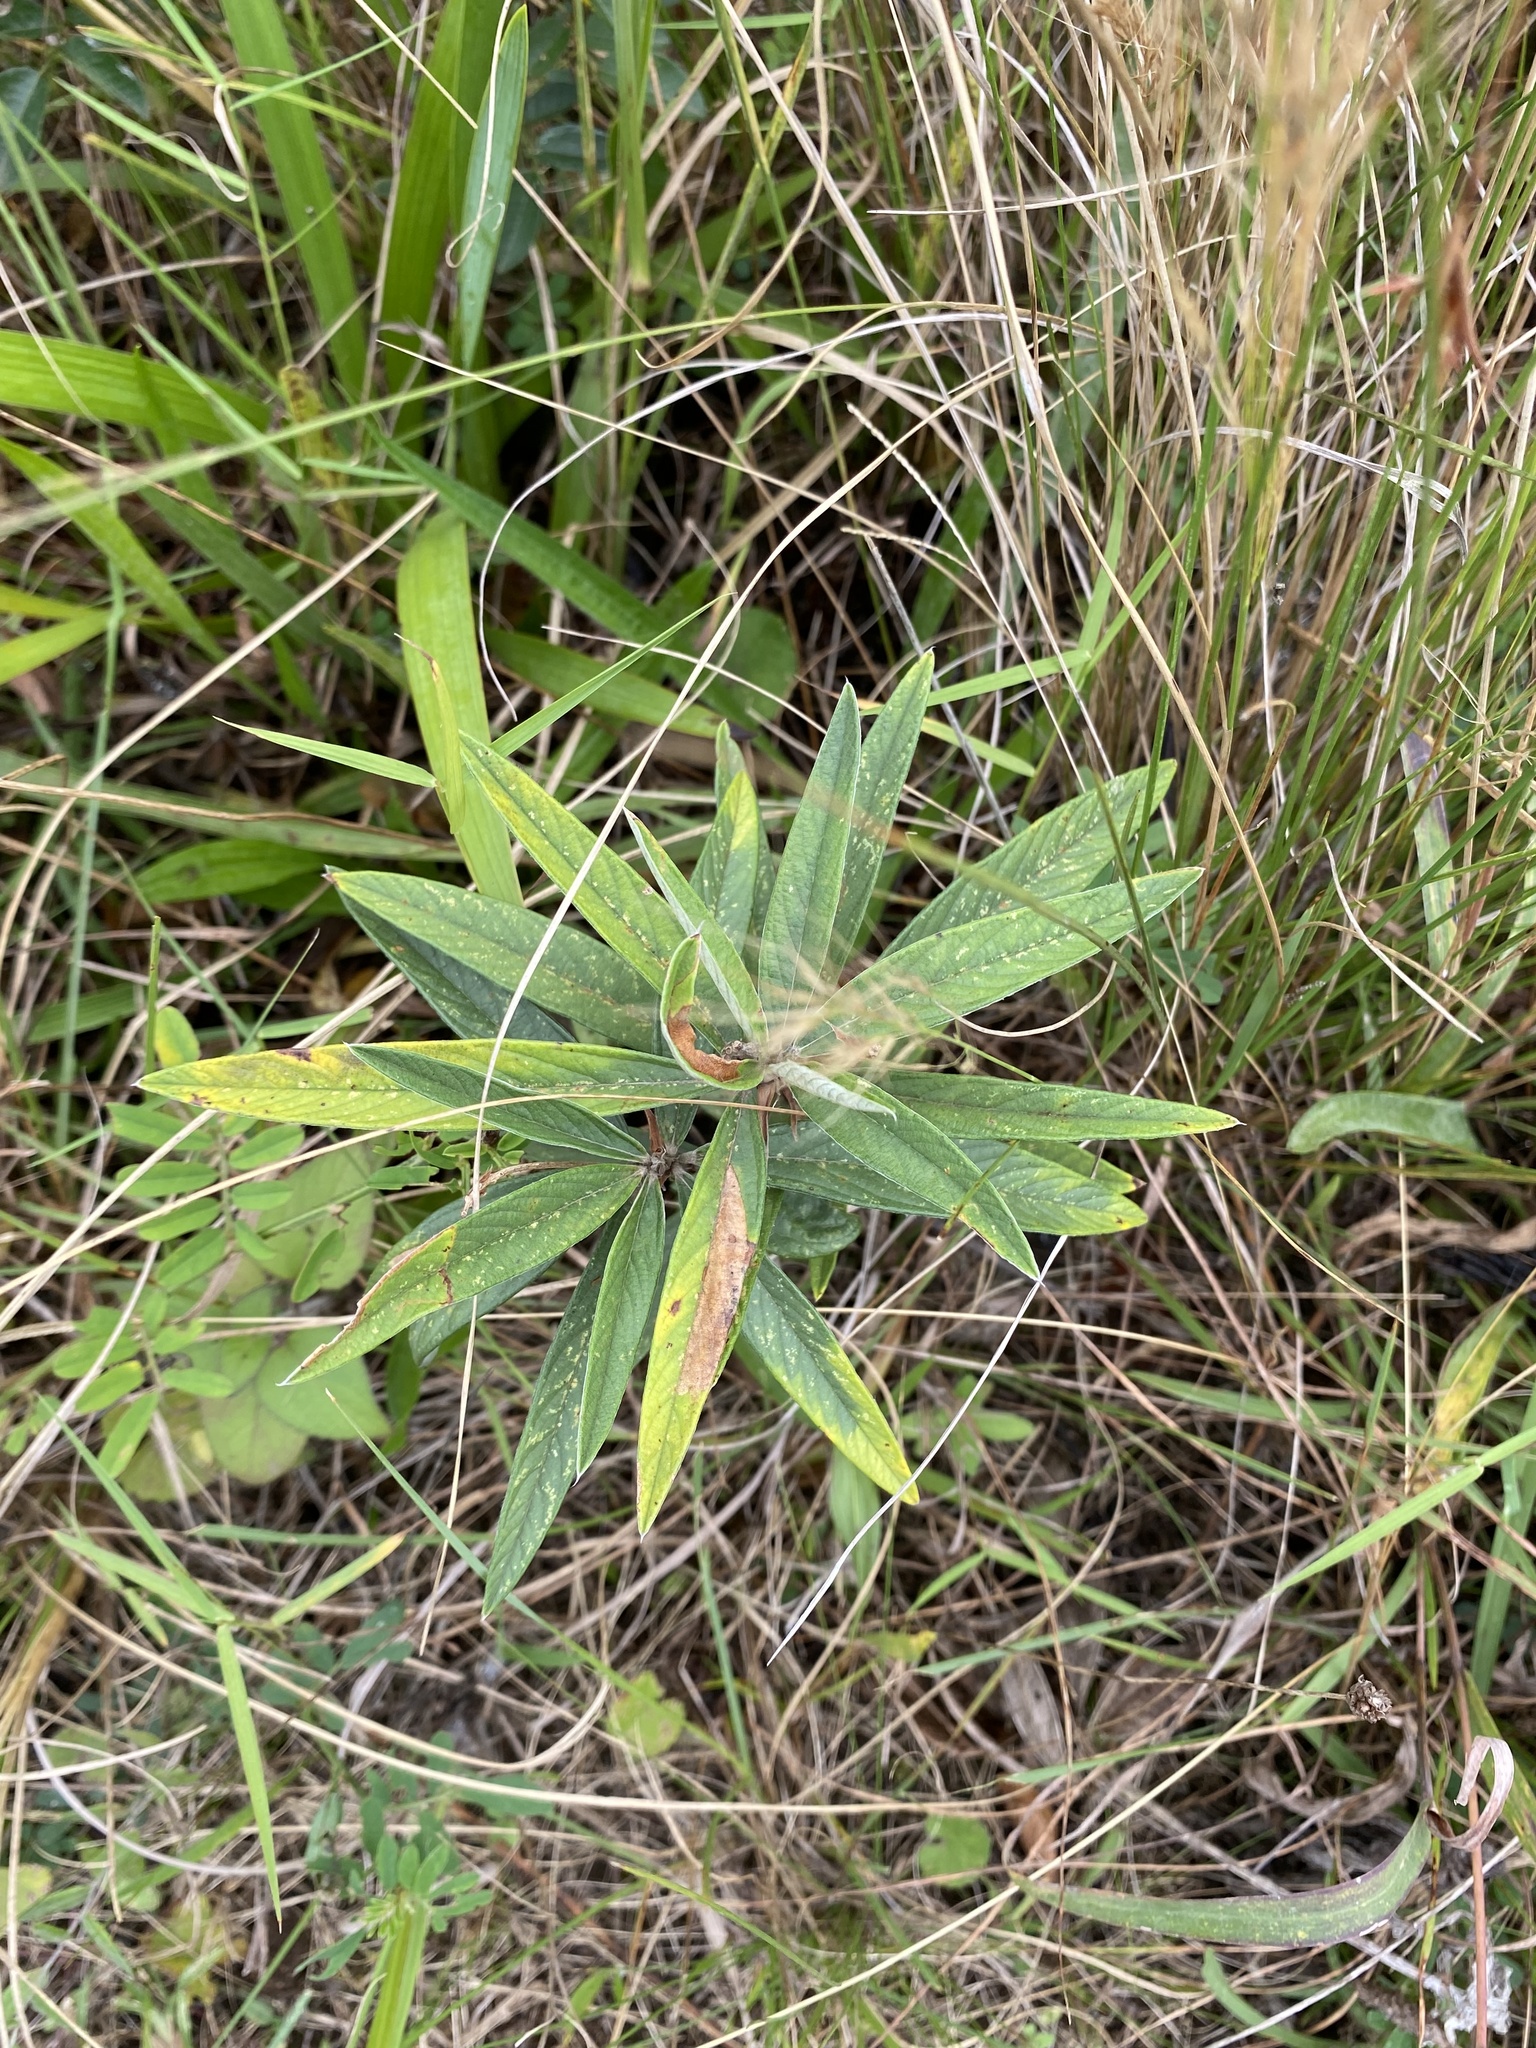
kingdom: Plantae
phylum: Tracheophyta
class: Magnoliopsida
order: Fabales
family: Fabaceae
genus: Eriosema
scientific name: Eriosema salignum
